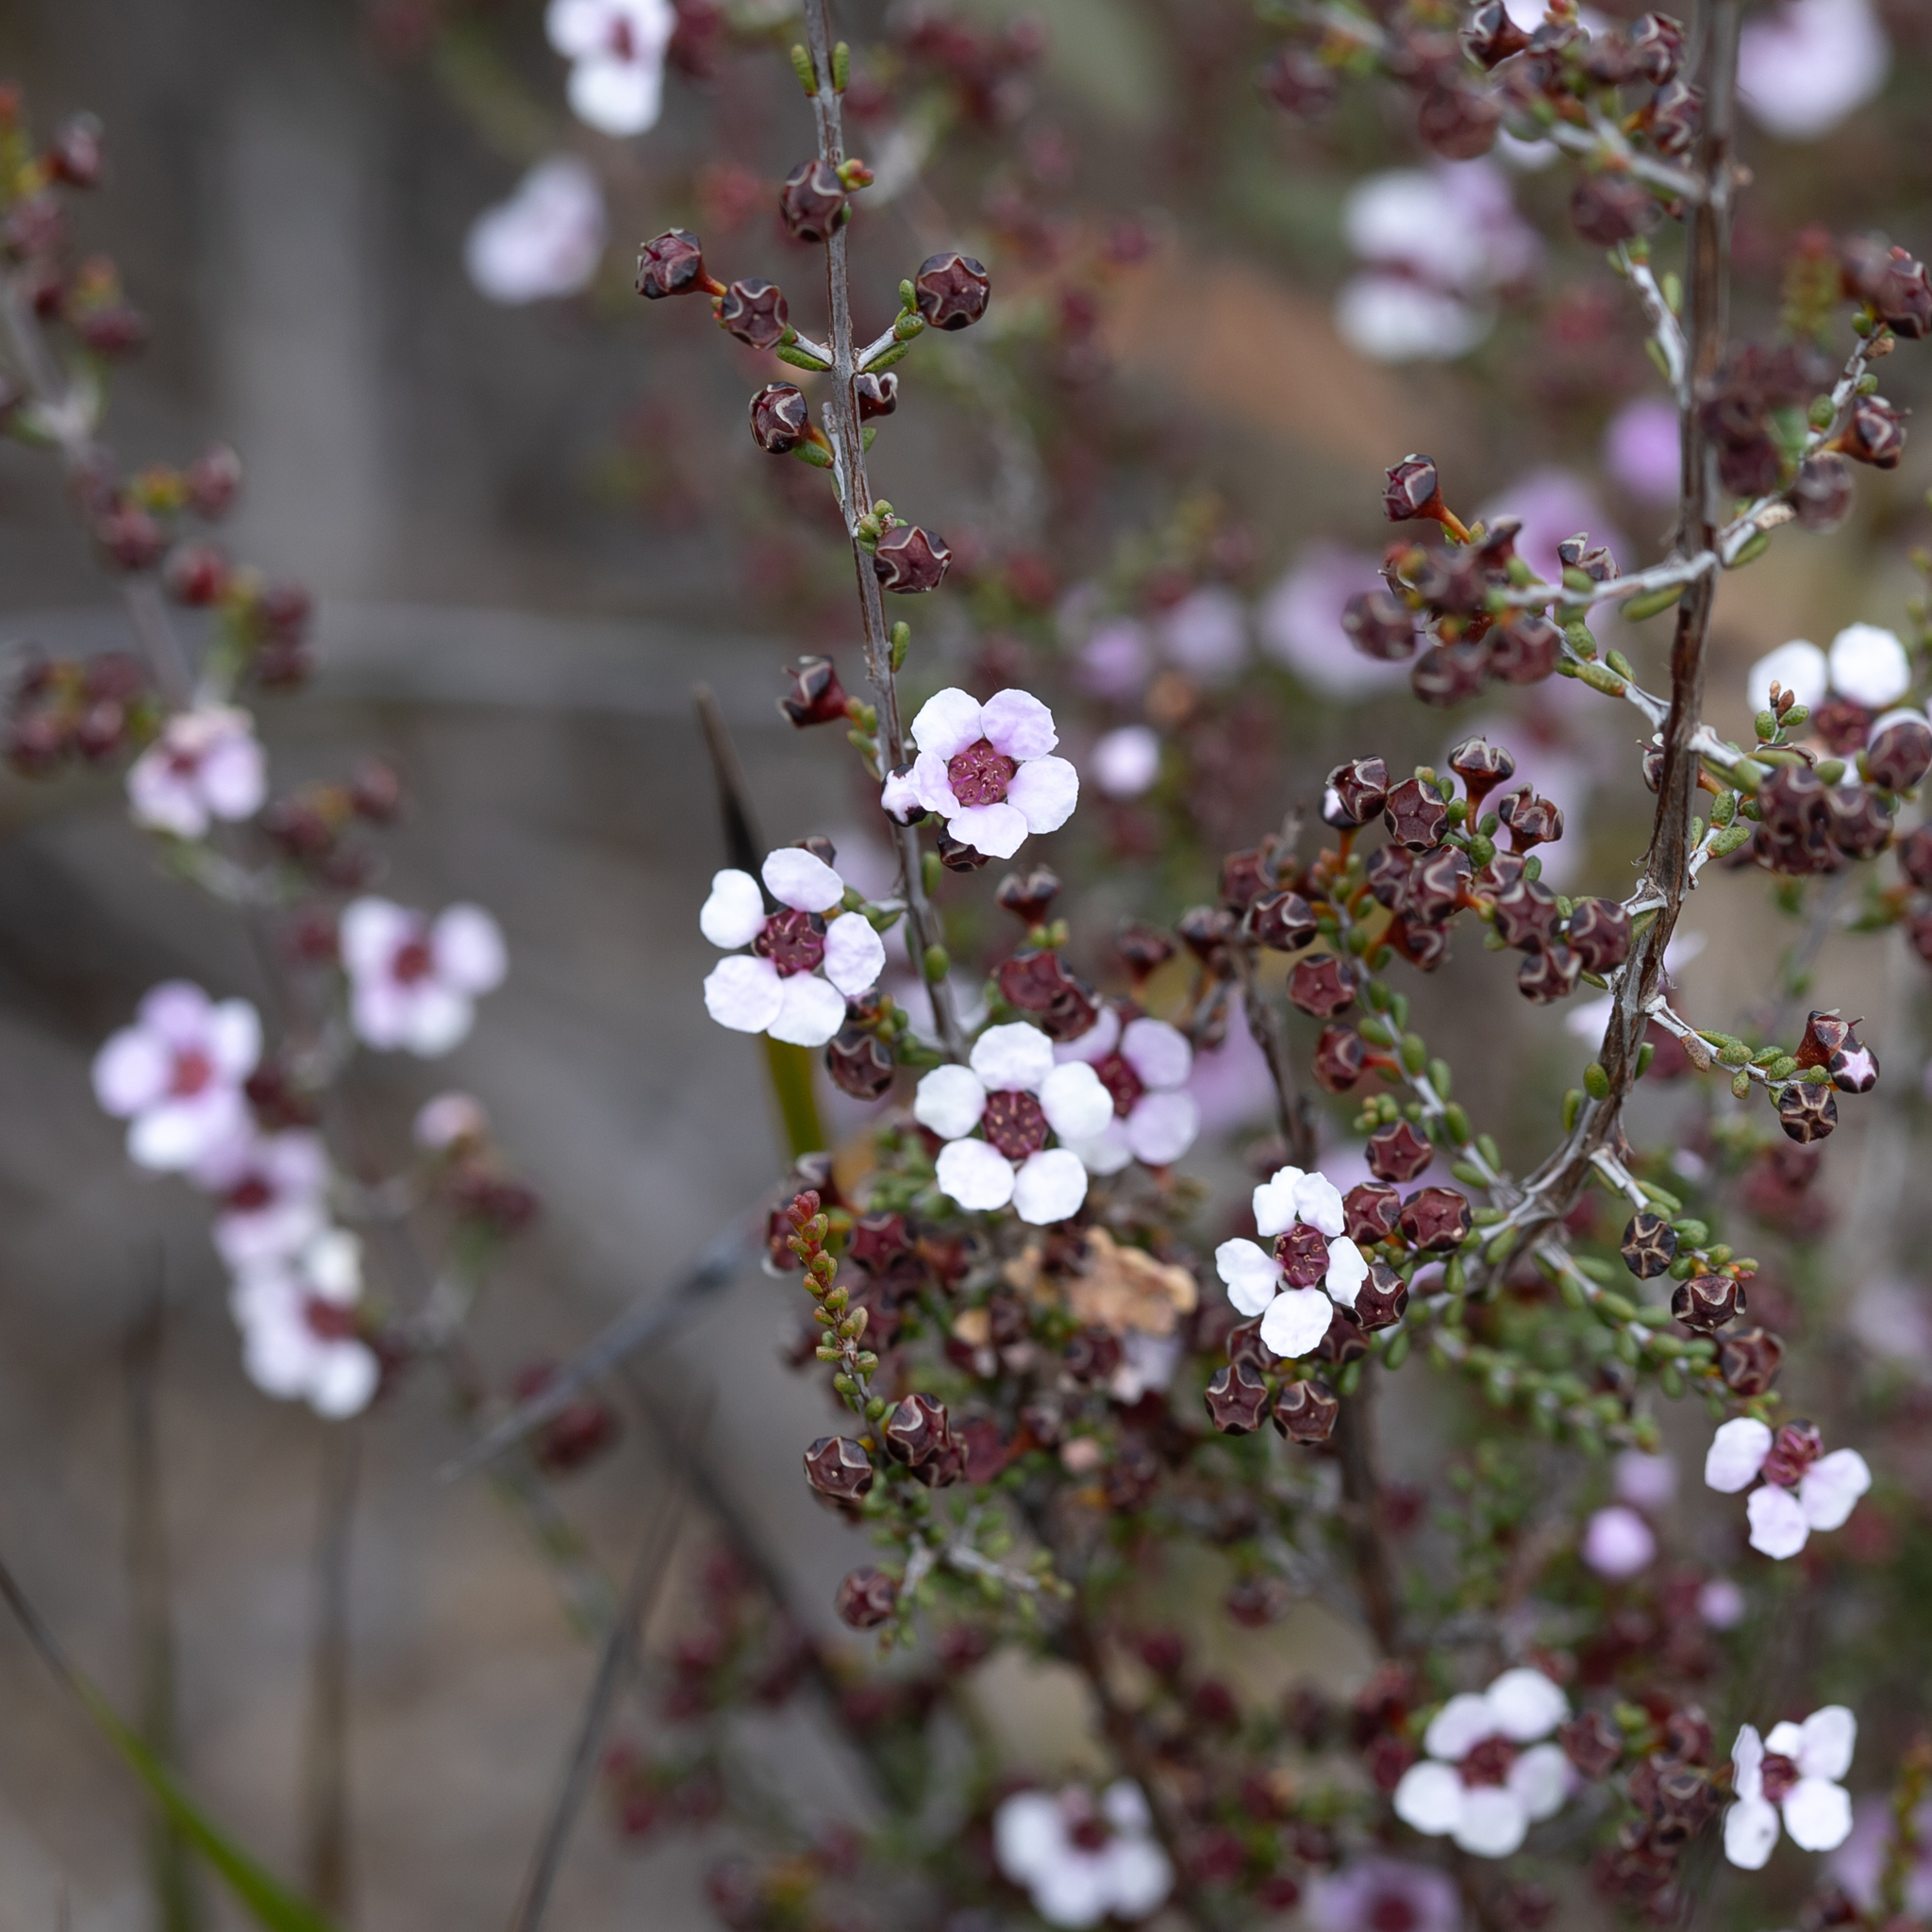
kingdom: Plantae
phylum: Tracheophyta
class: Magnoliopsida
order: Myrtales
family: Myrtaceae
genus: Rinzia
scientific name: Rinzia orientalis
